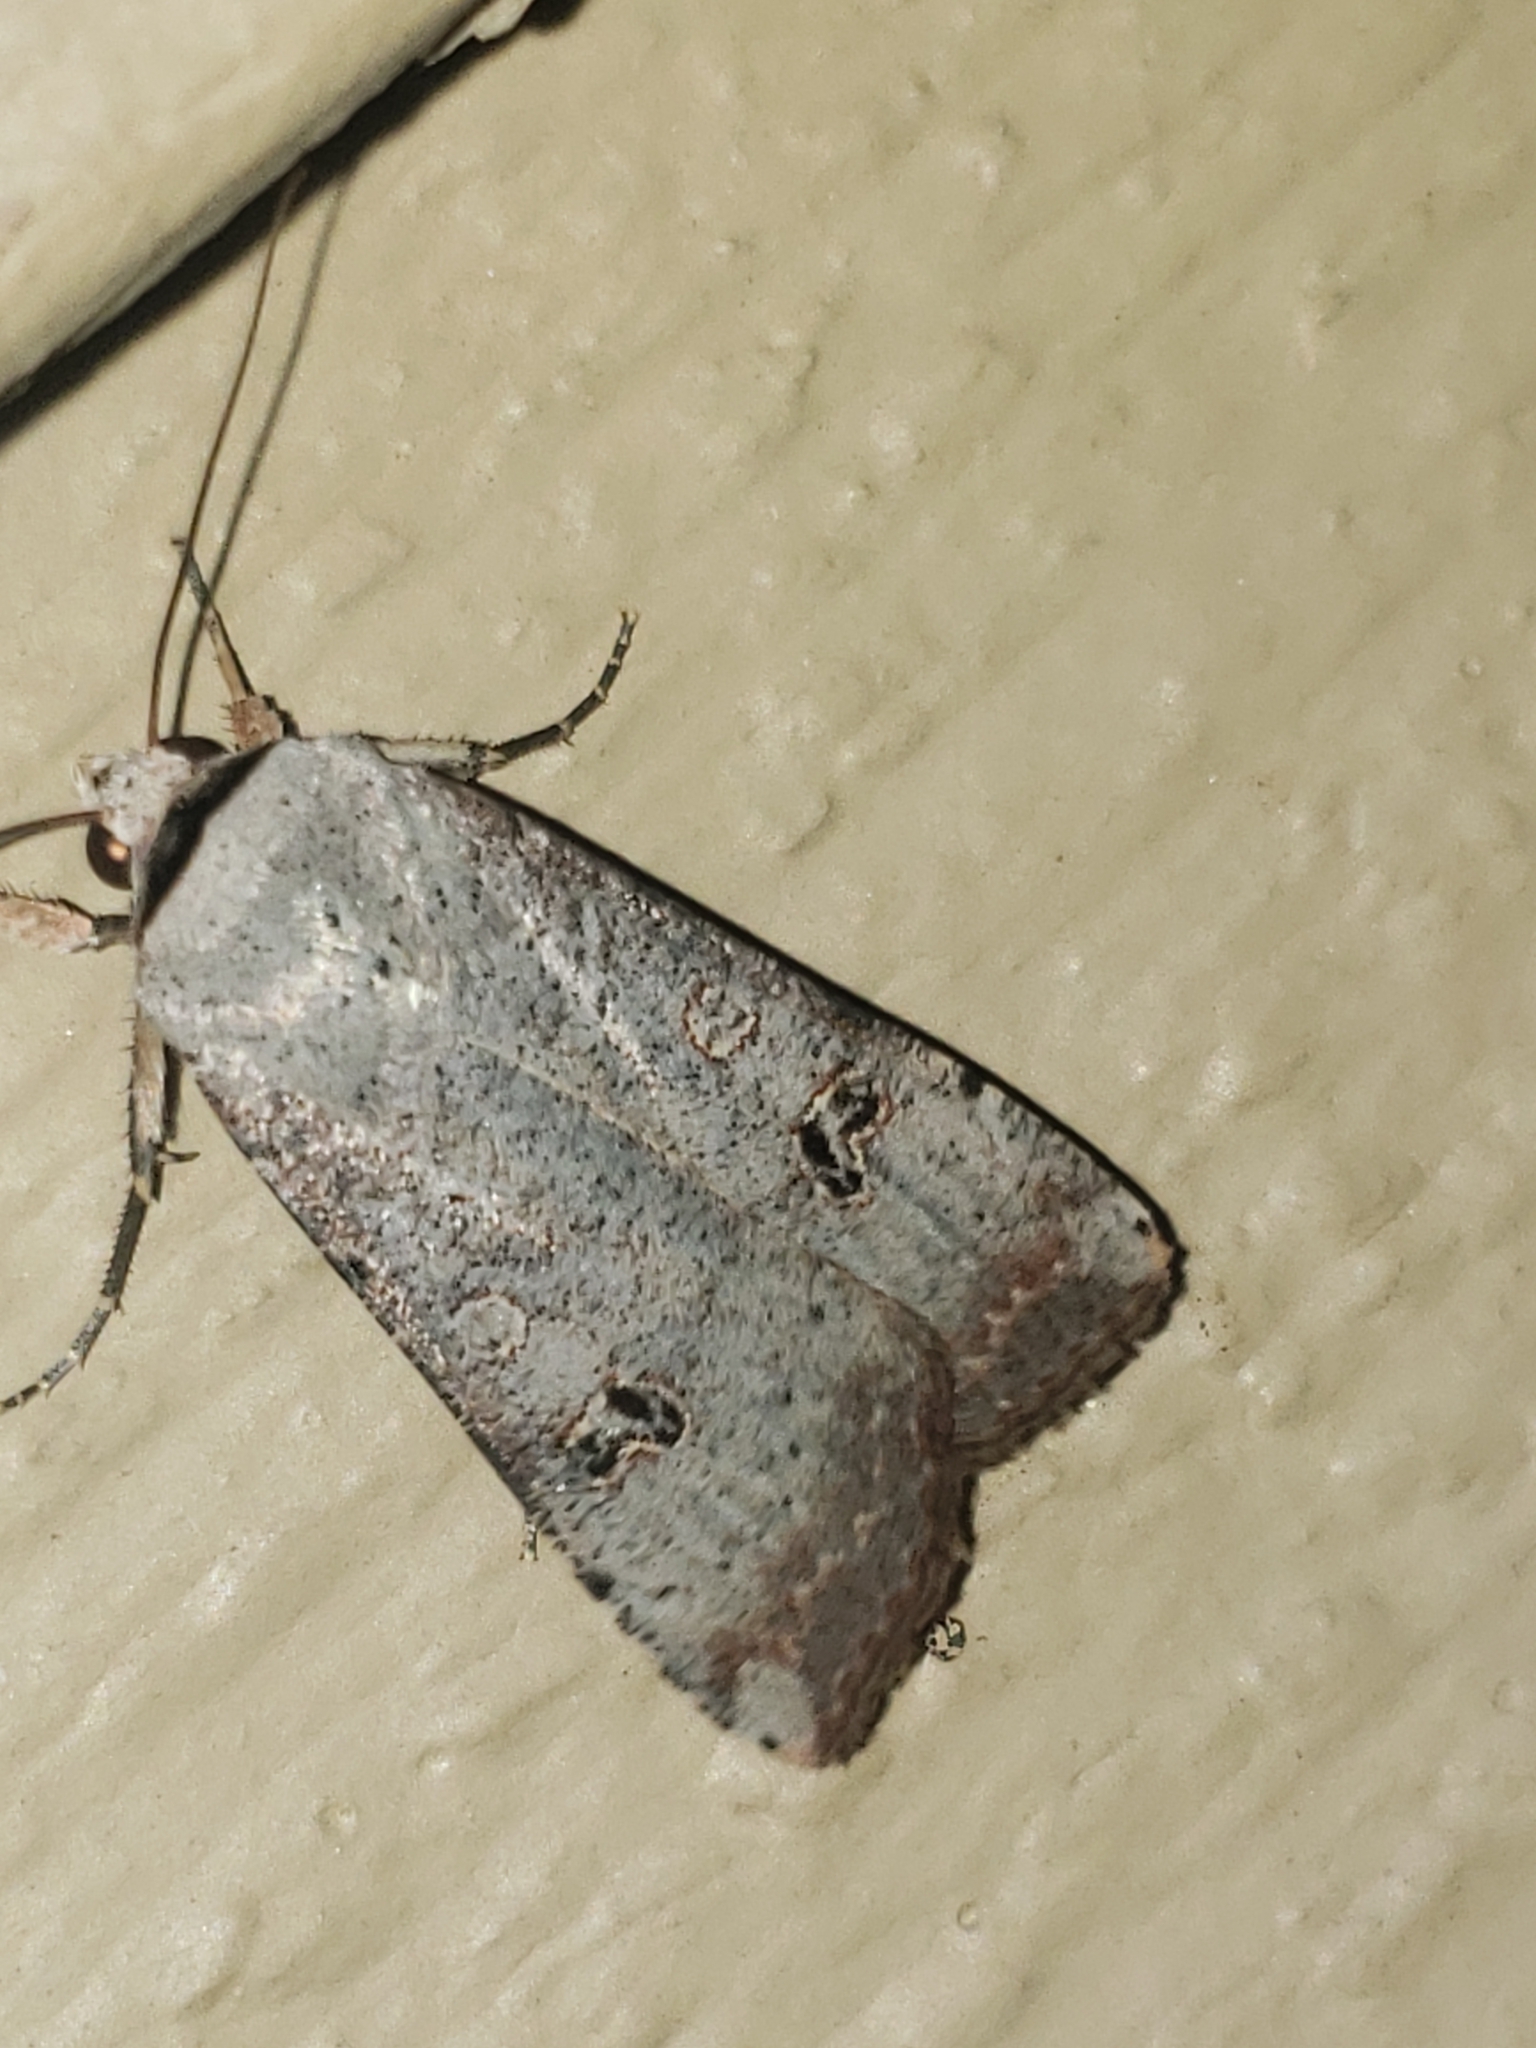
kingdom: Animalia
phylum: Arthropoda
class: Insecta
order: Lepidoptera
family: Noctuidae
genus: Anicla
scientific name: Anicla infecta
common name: Green cutworm
